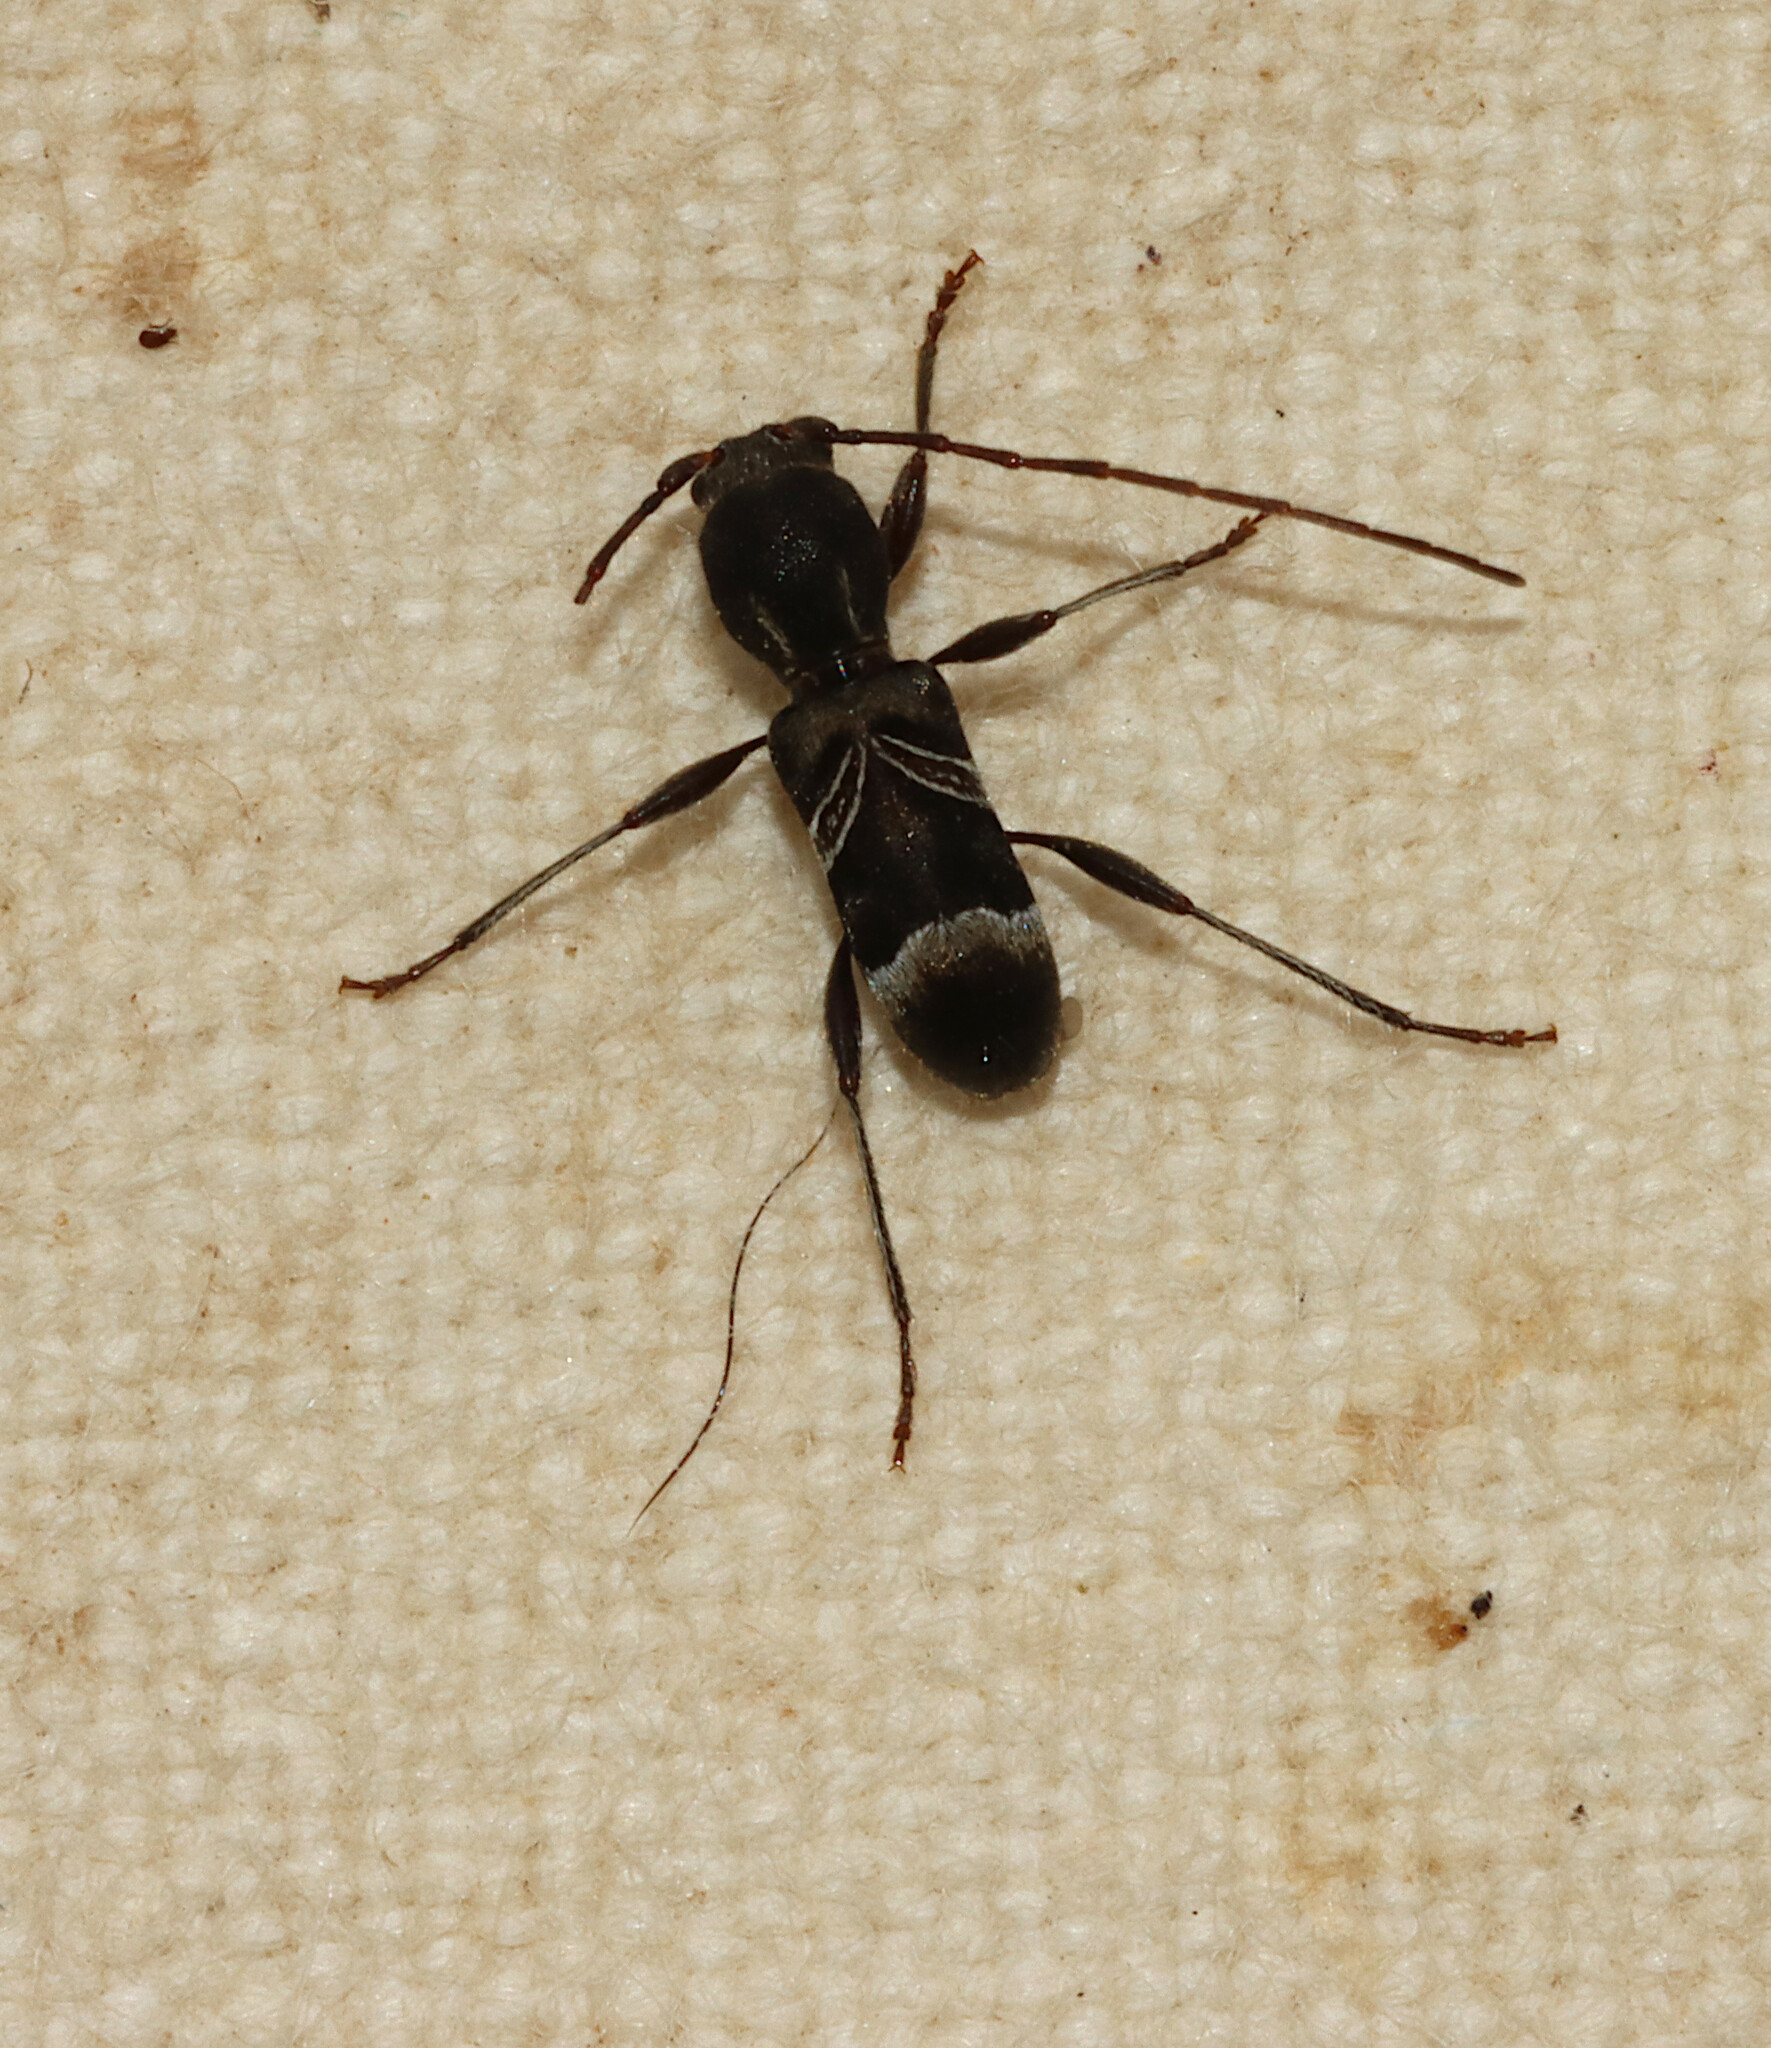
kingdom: Animalia
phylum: Arthropoda
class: Insecta
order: Coleoptera
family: Cerambycidae
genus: Tilloclytus
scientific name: Tilloclytus geminatus
